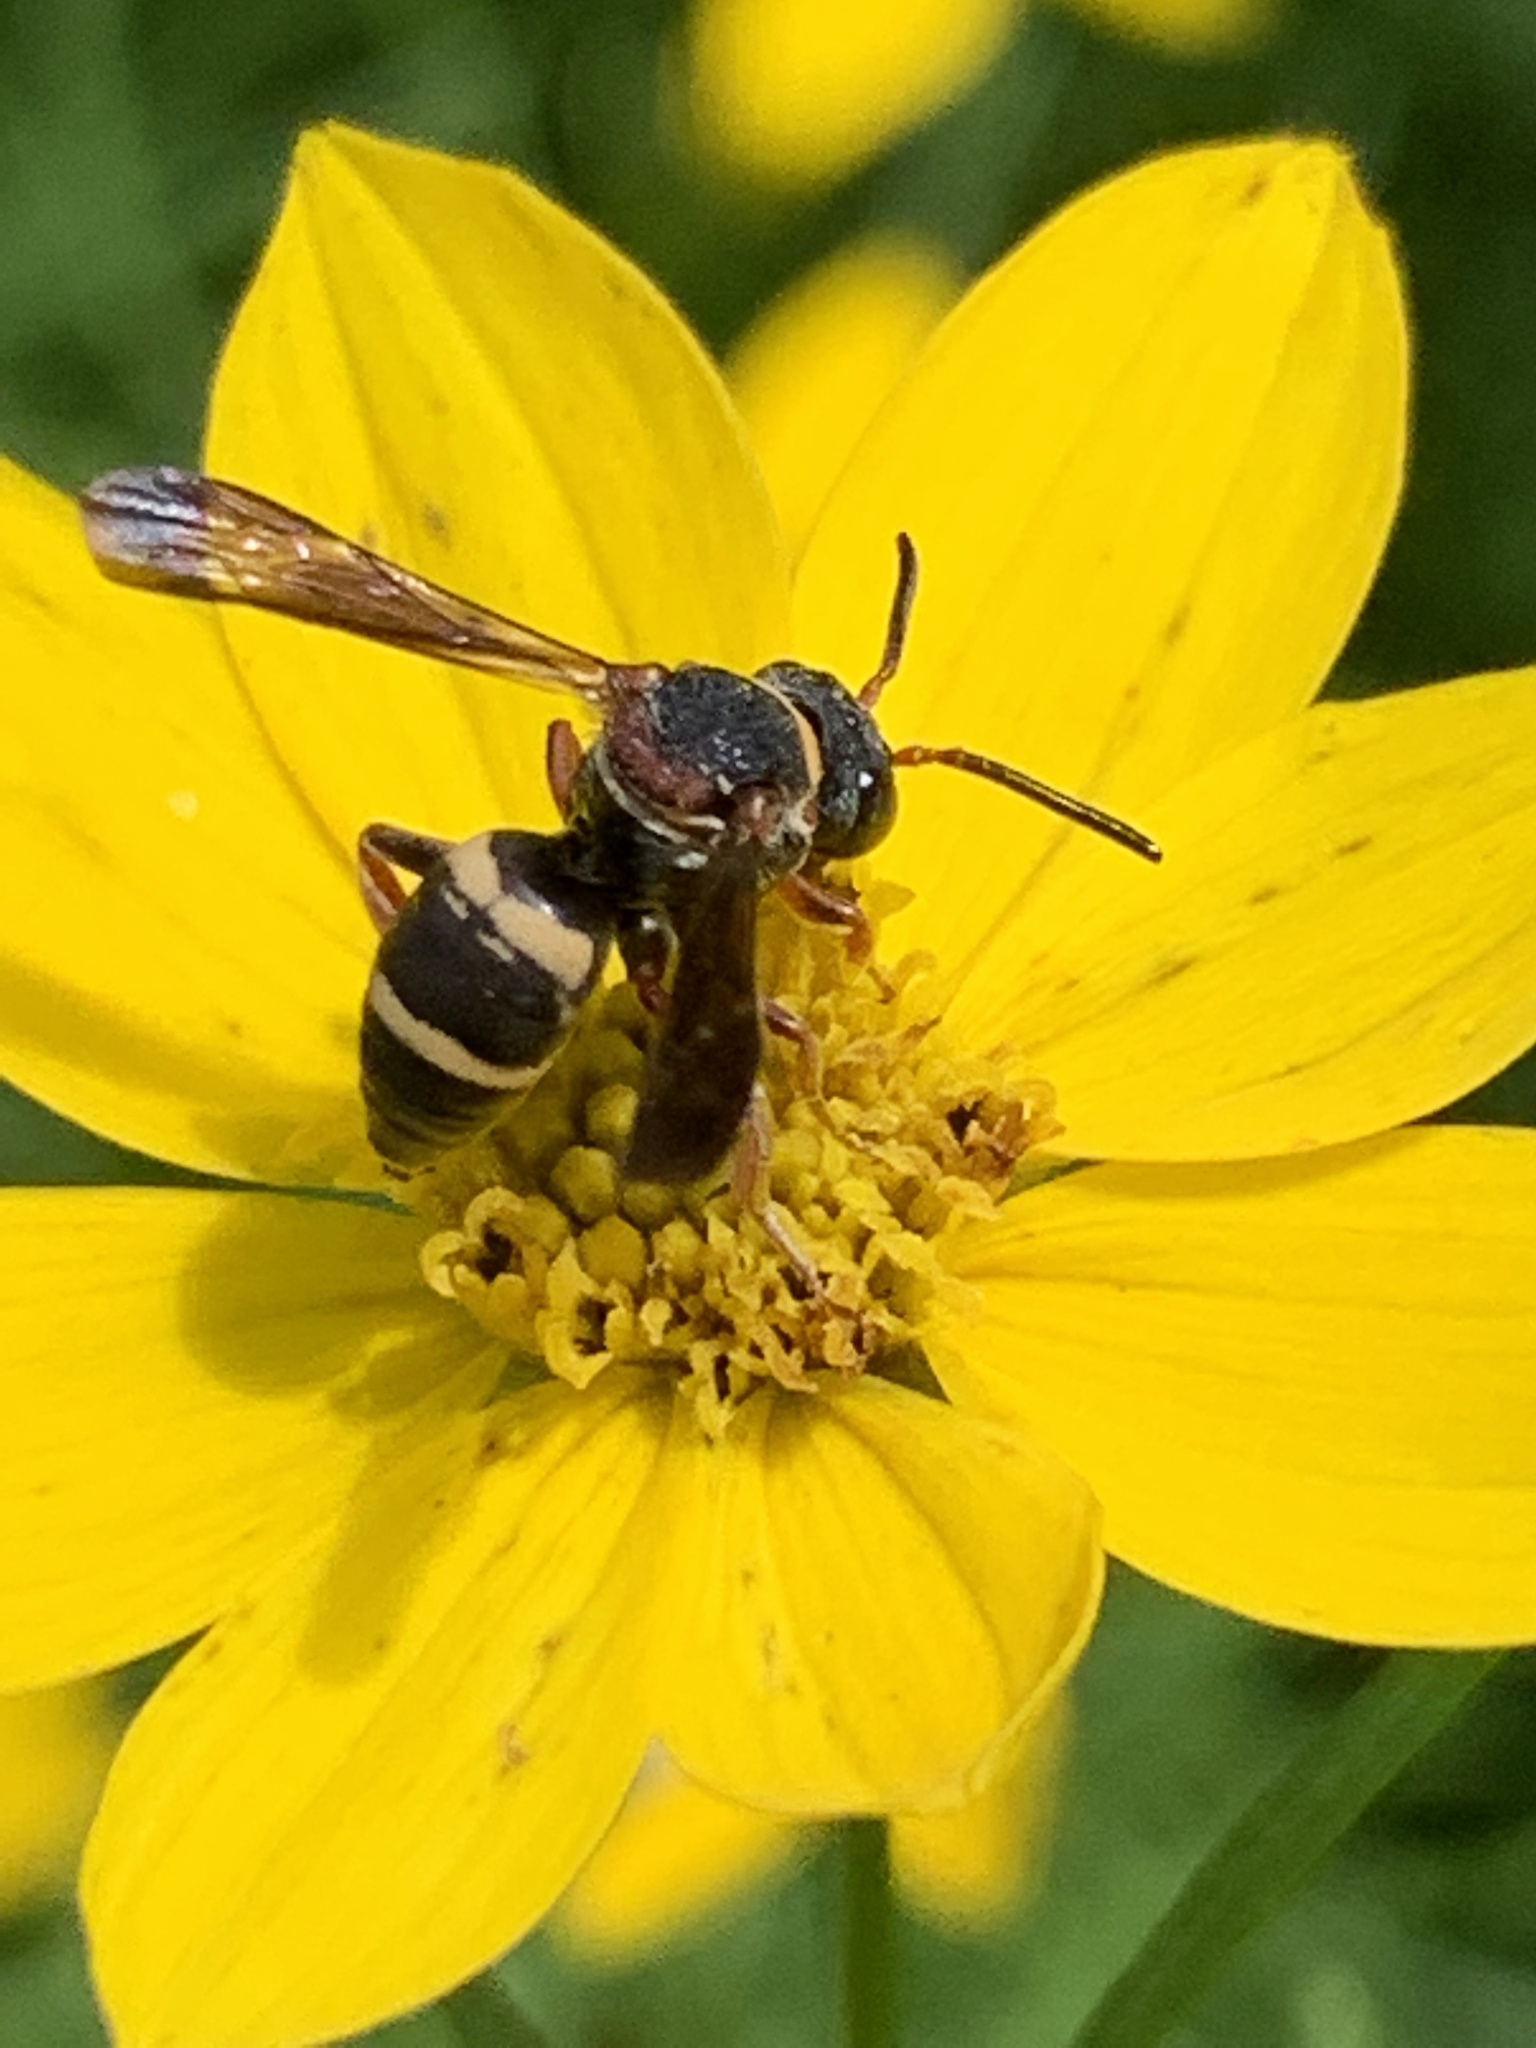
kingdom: Animalia
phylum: Arthropoda
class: Insecta
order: Hymenoptera
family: Apidae
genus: Epeolus
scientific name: Epeolus bifasciatus
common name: Two-banded cellophane-cuckoo
